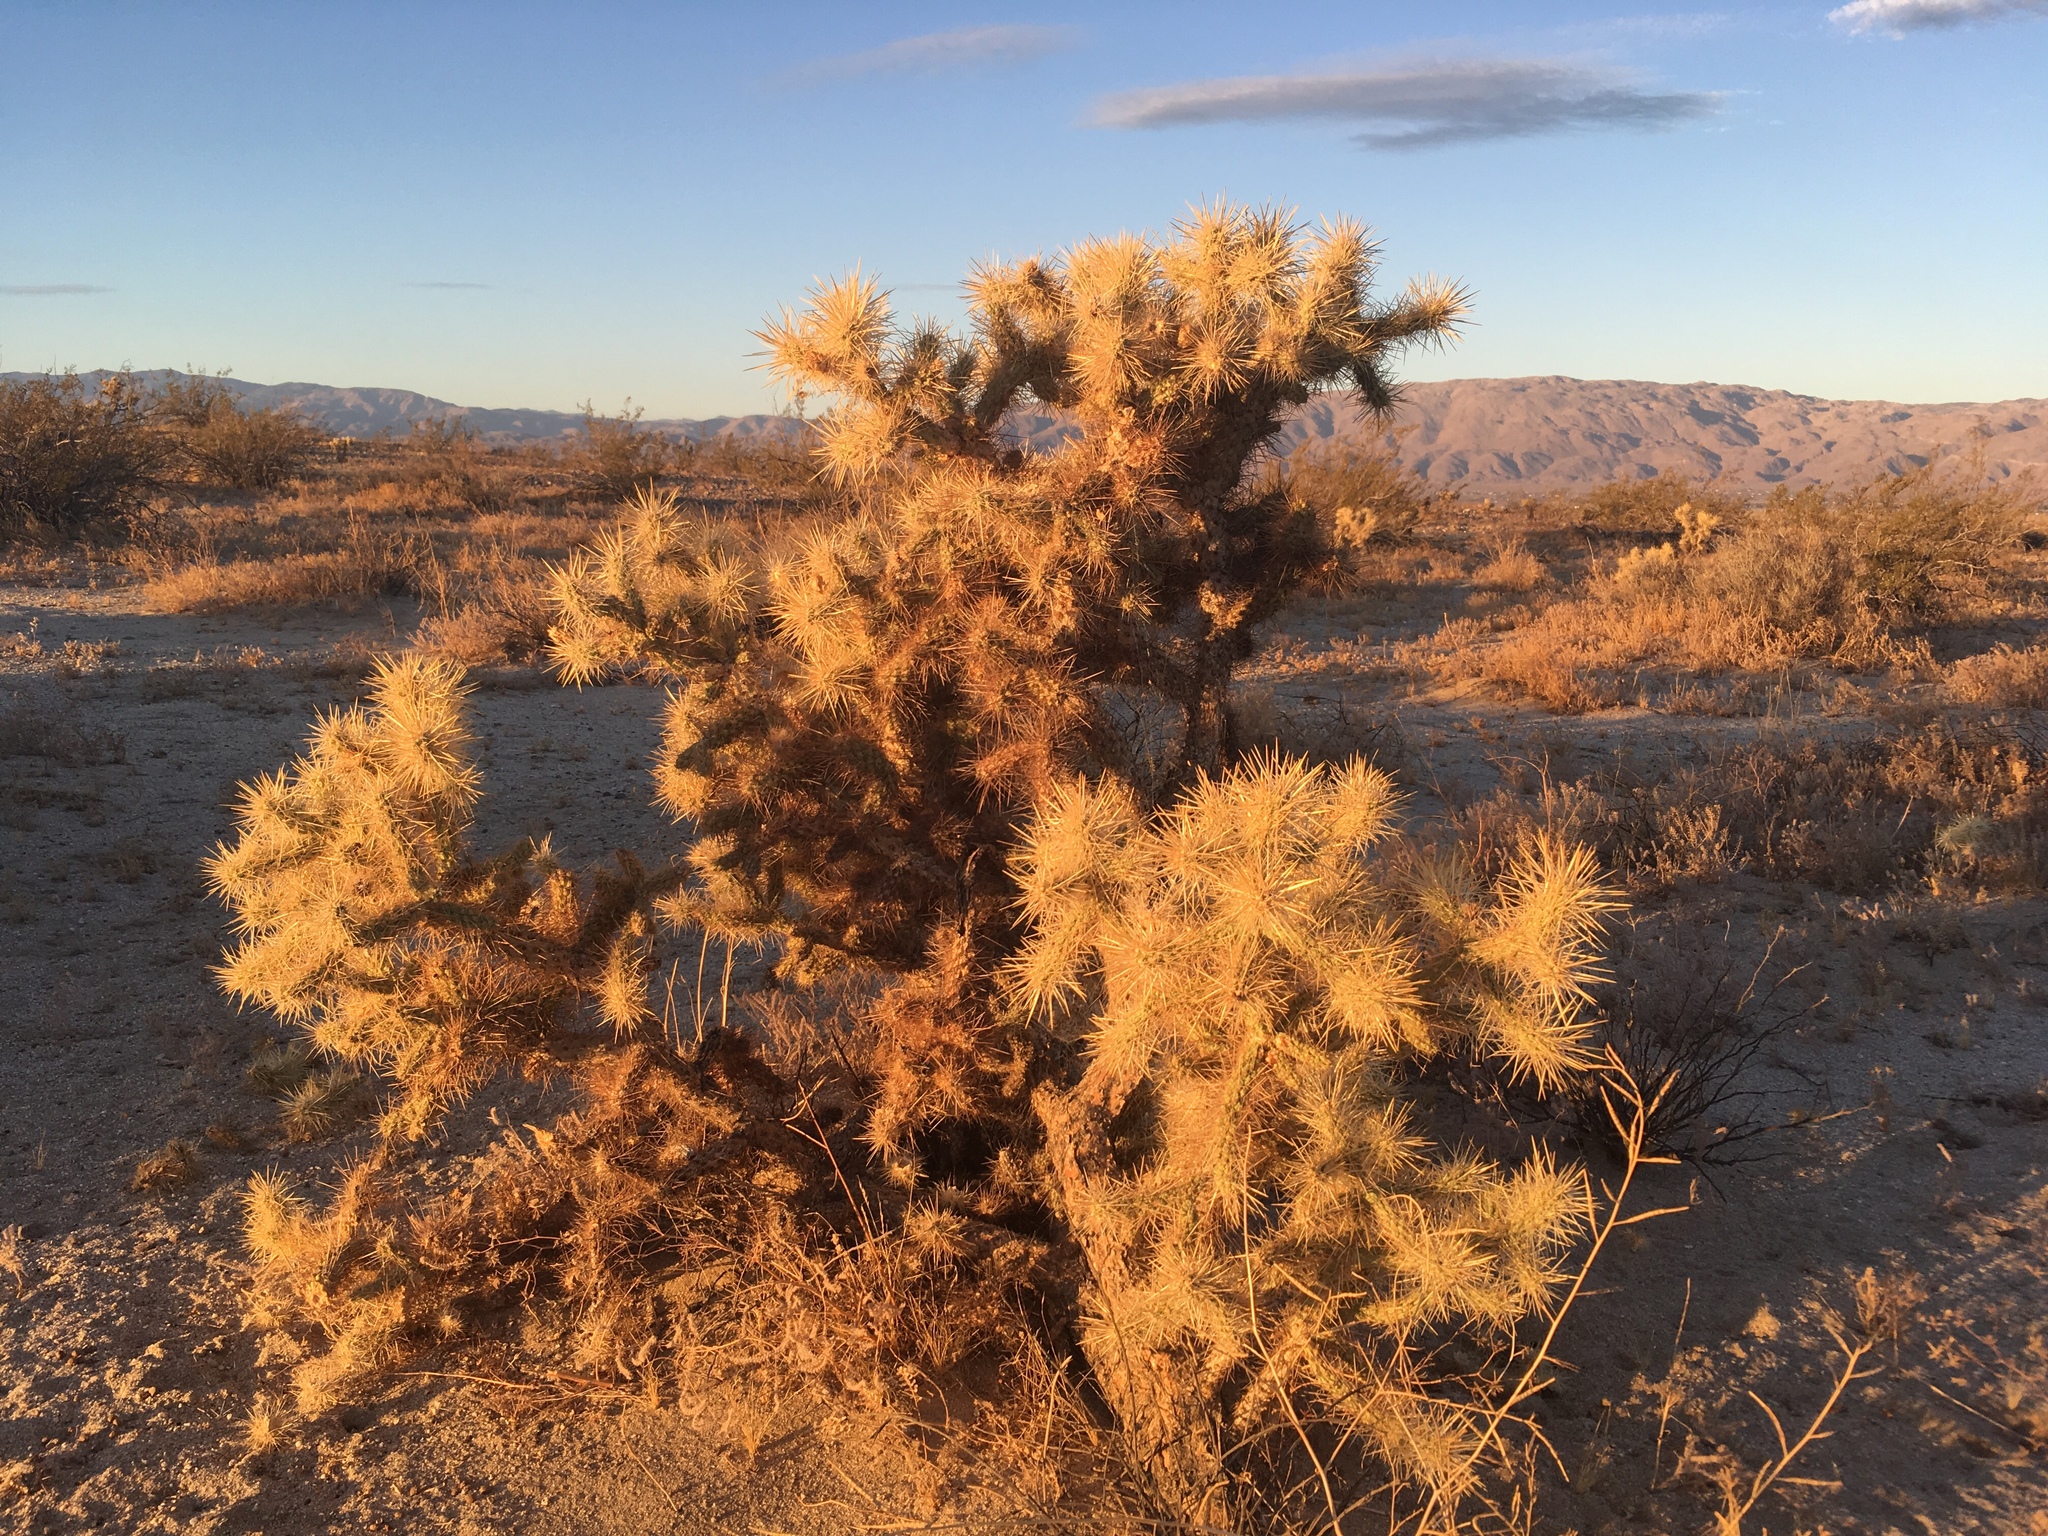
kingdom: Plantae
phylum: Tracheophyta
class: Magnoliopsida
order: Caryophyllales
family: Cactaceae
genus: Cylindropuntia
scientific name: Cylindropuntia echinocarpa
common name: Ground cholla
